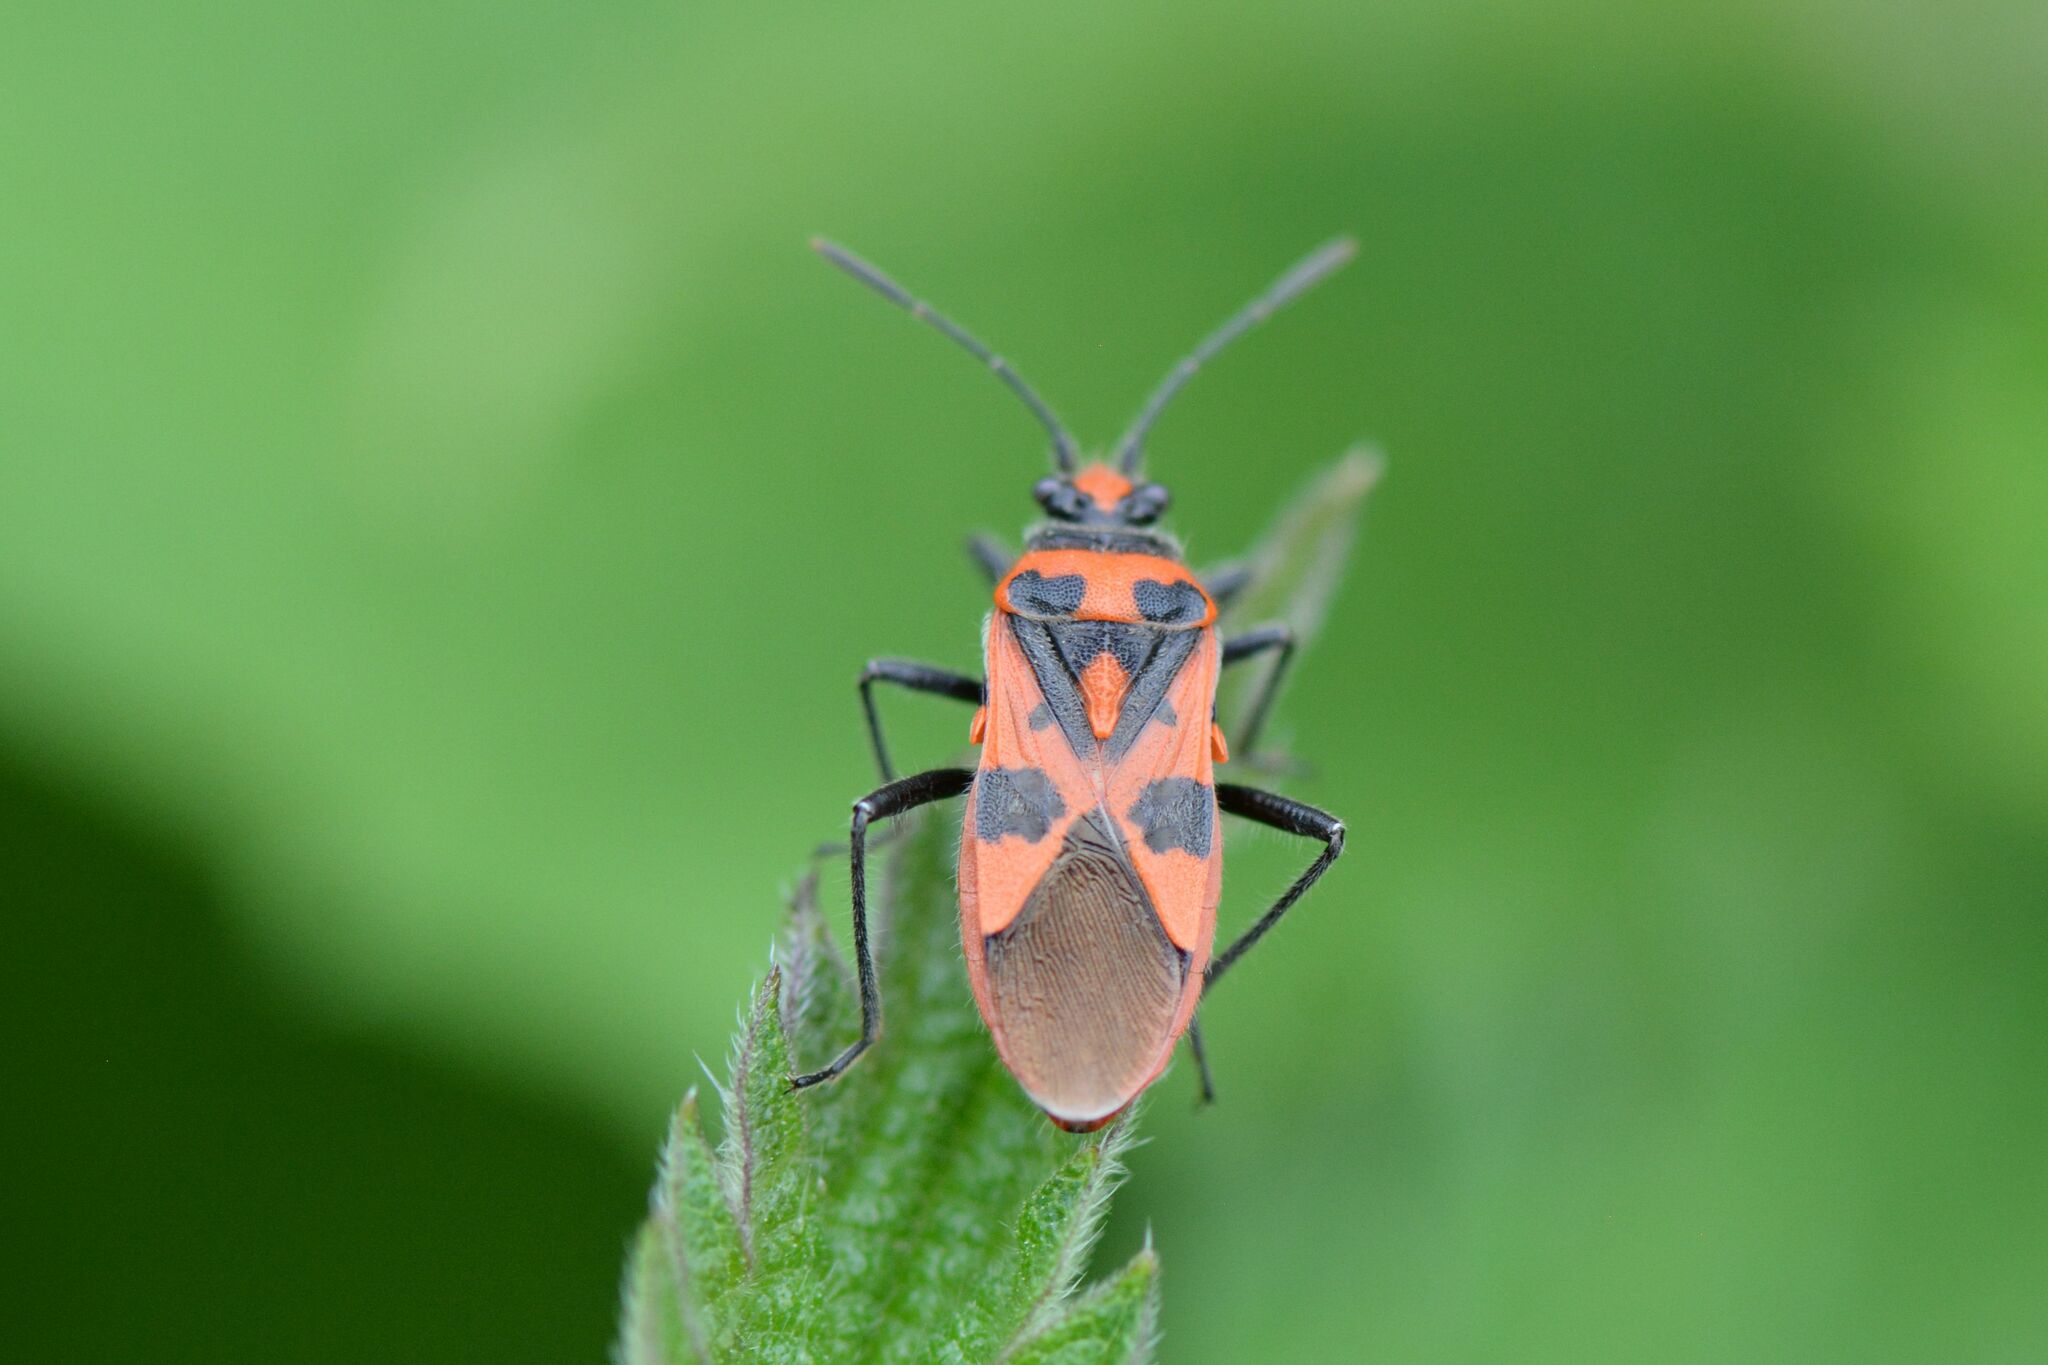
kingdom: Animalia
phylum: Arthropoda
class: Insecta
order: Hemiptera
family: Rhopalidae
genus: Corizus
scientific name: Corizus hyoscyami
